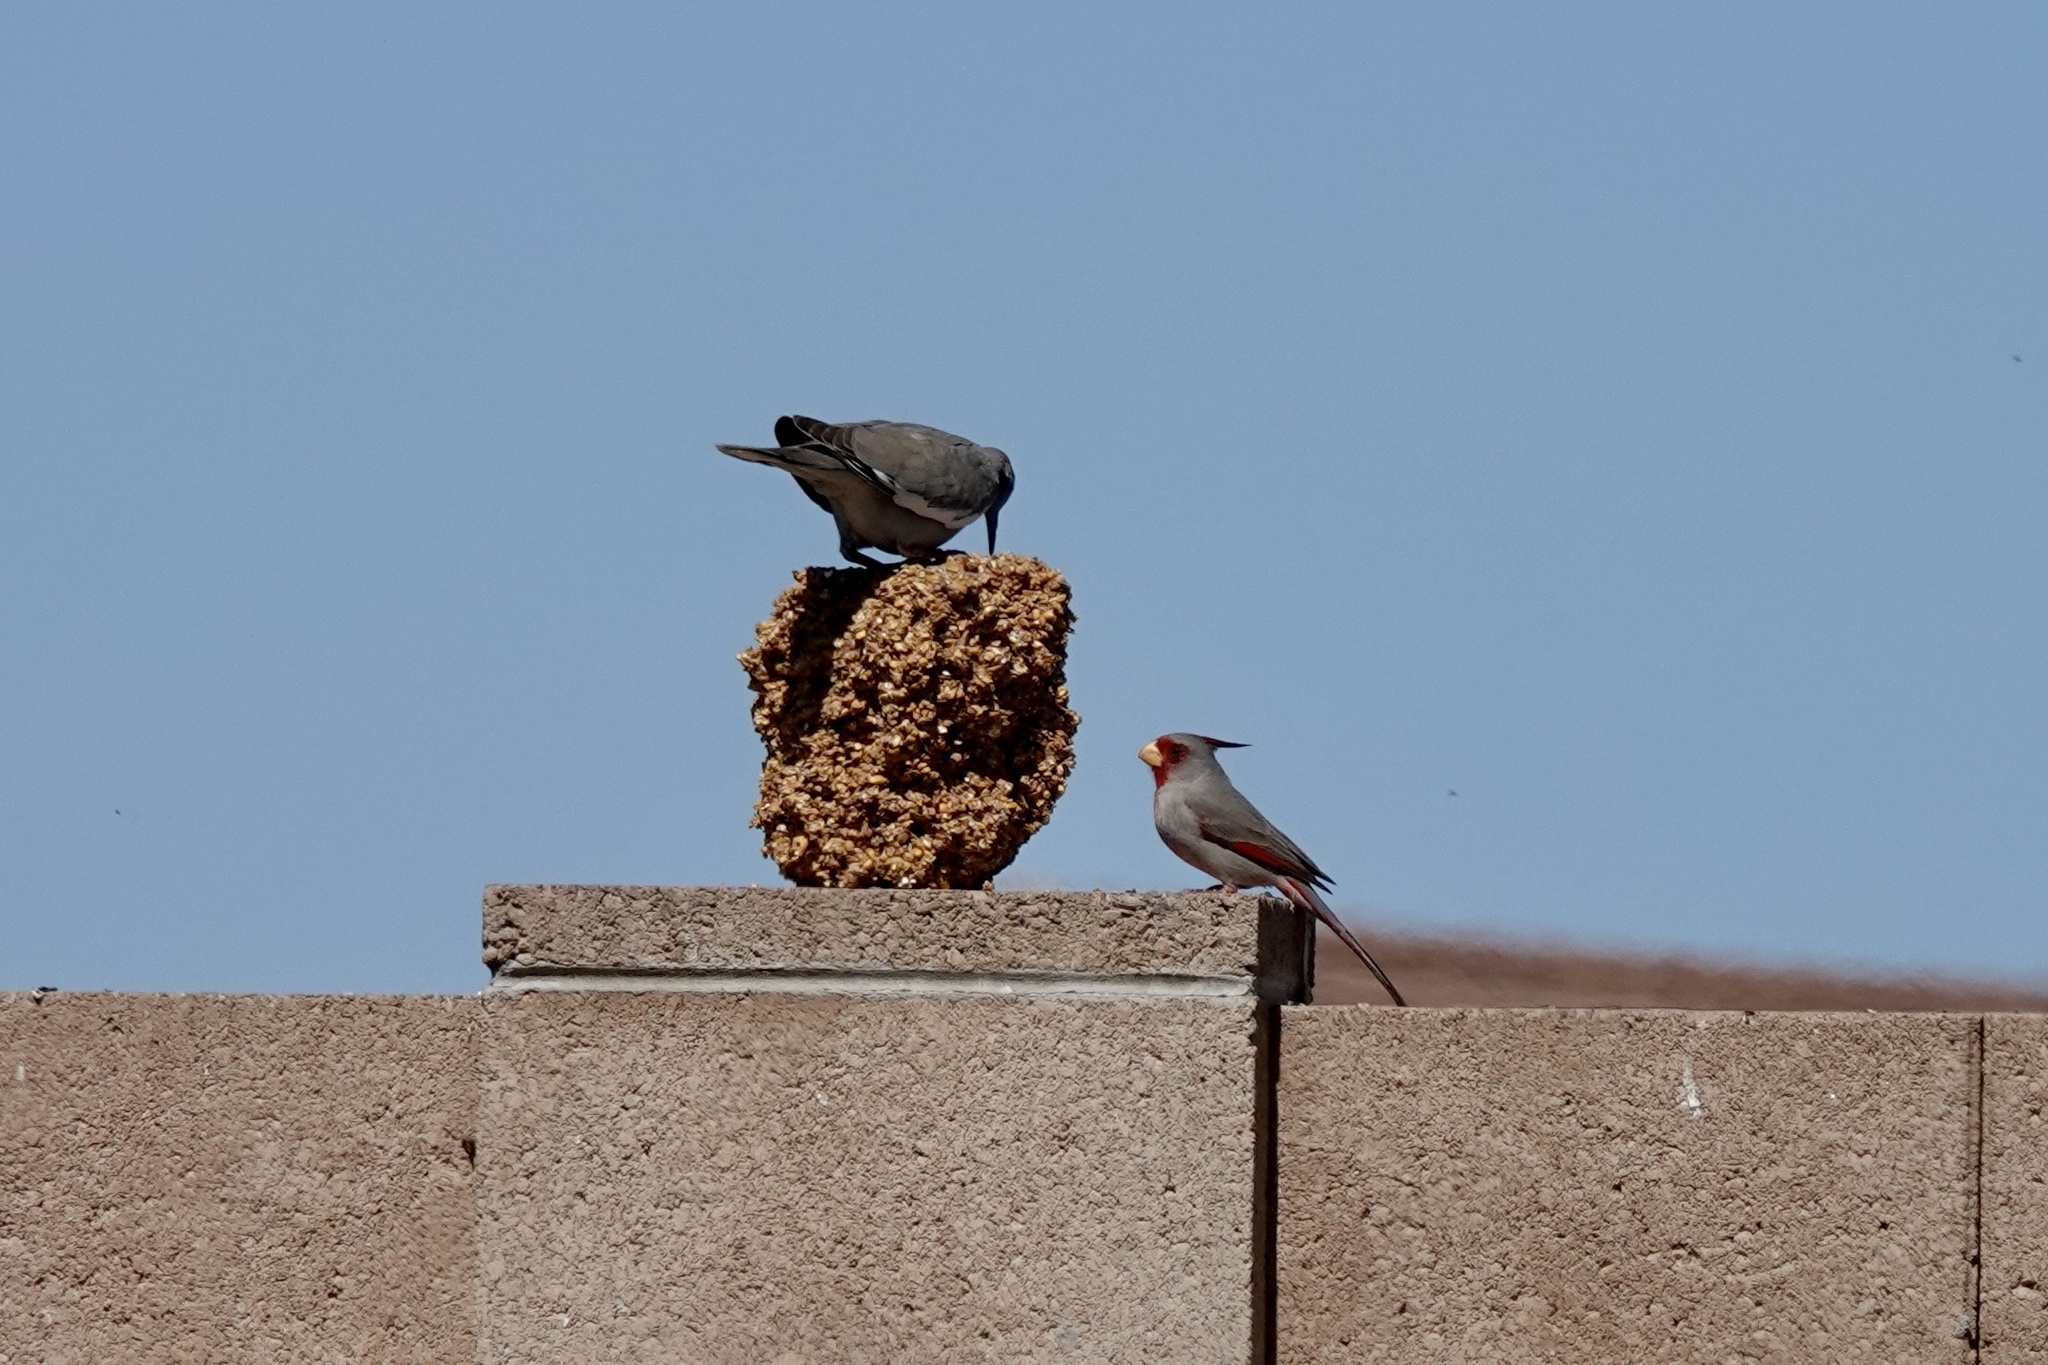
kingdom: Animalia
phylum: Chordata
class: Aves
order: Columbiformes
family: Columbidae
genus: Zenaida
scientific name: Zenaida asiatica
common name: White-winged dove
